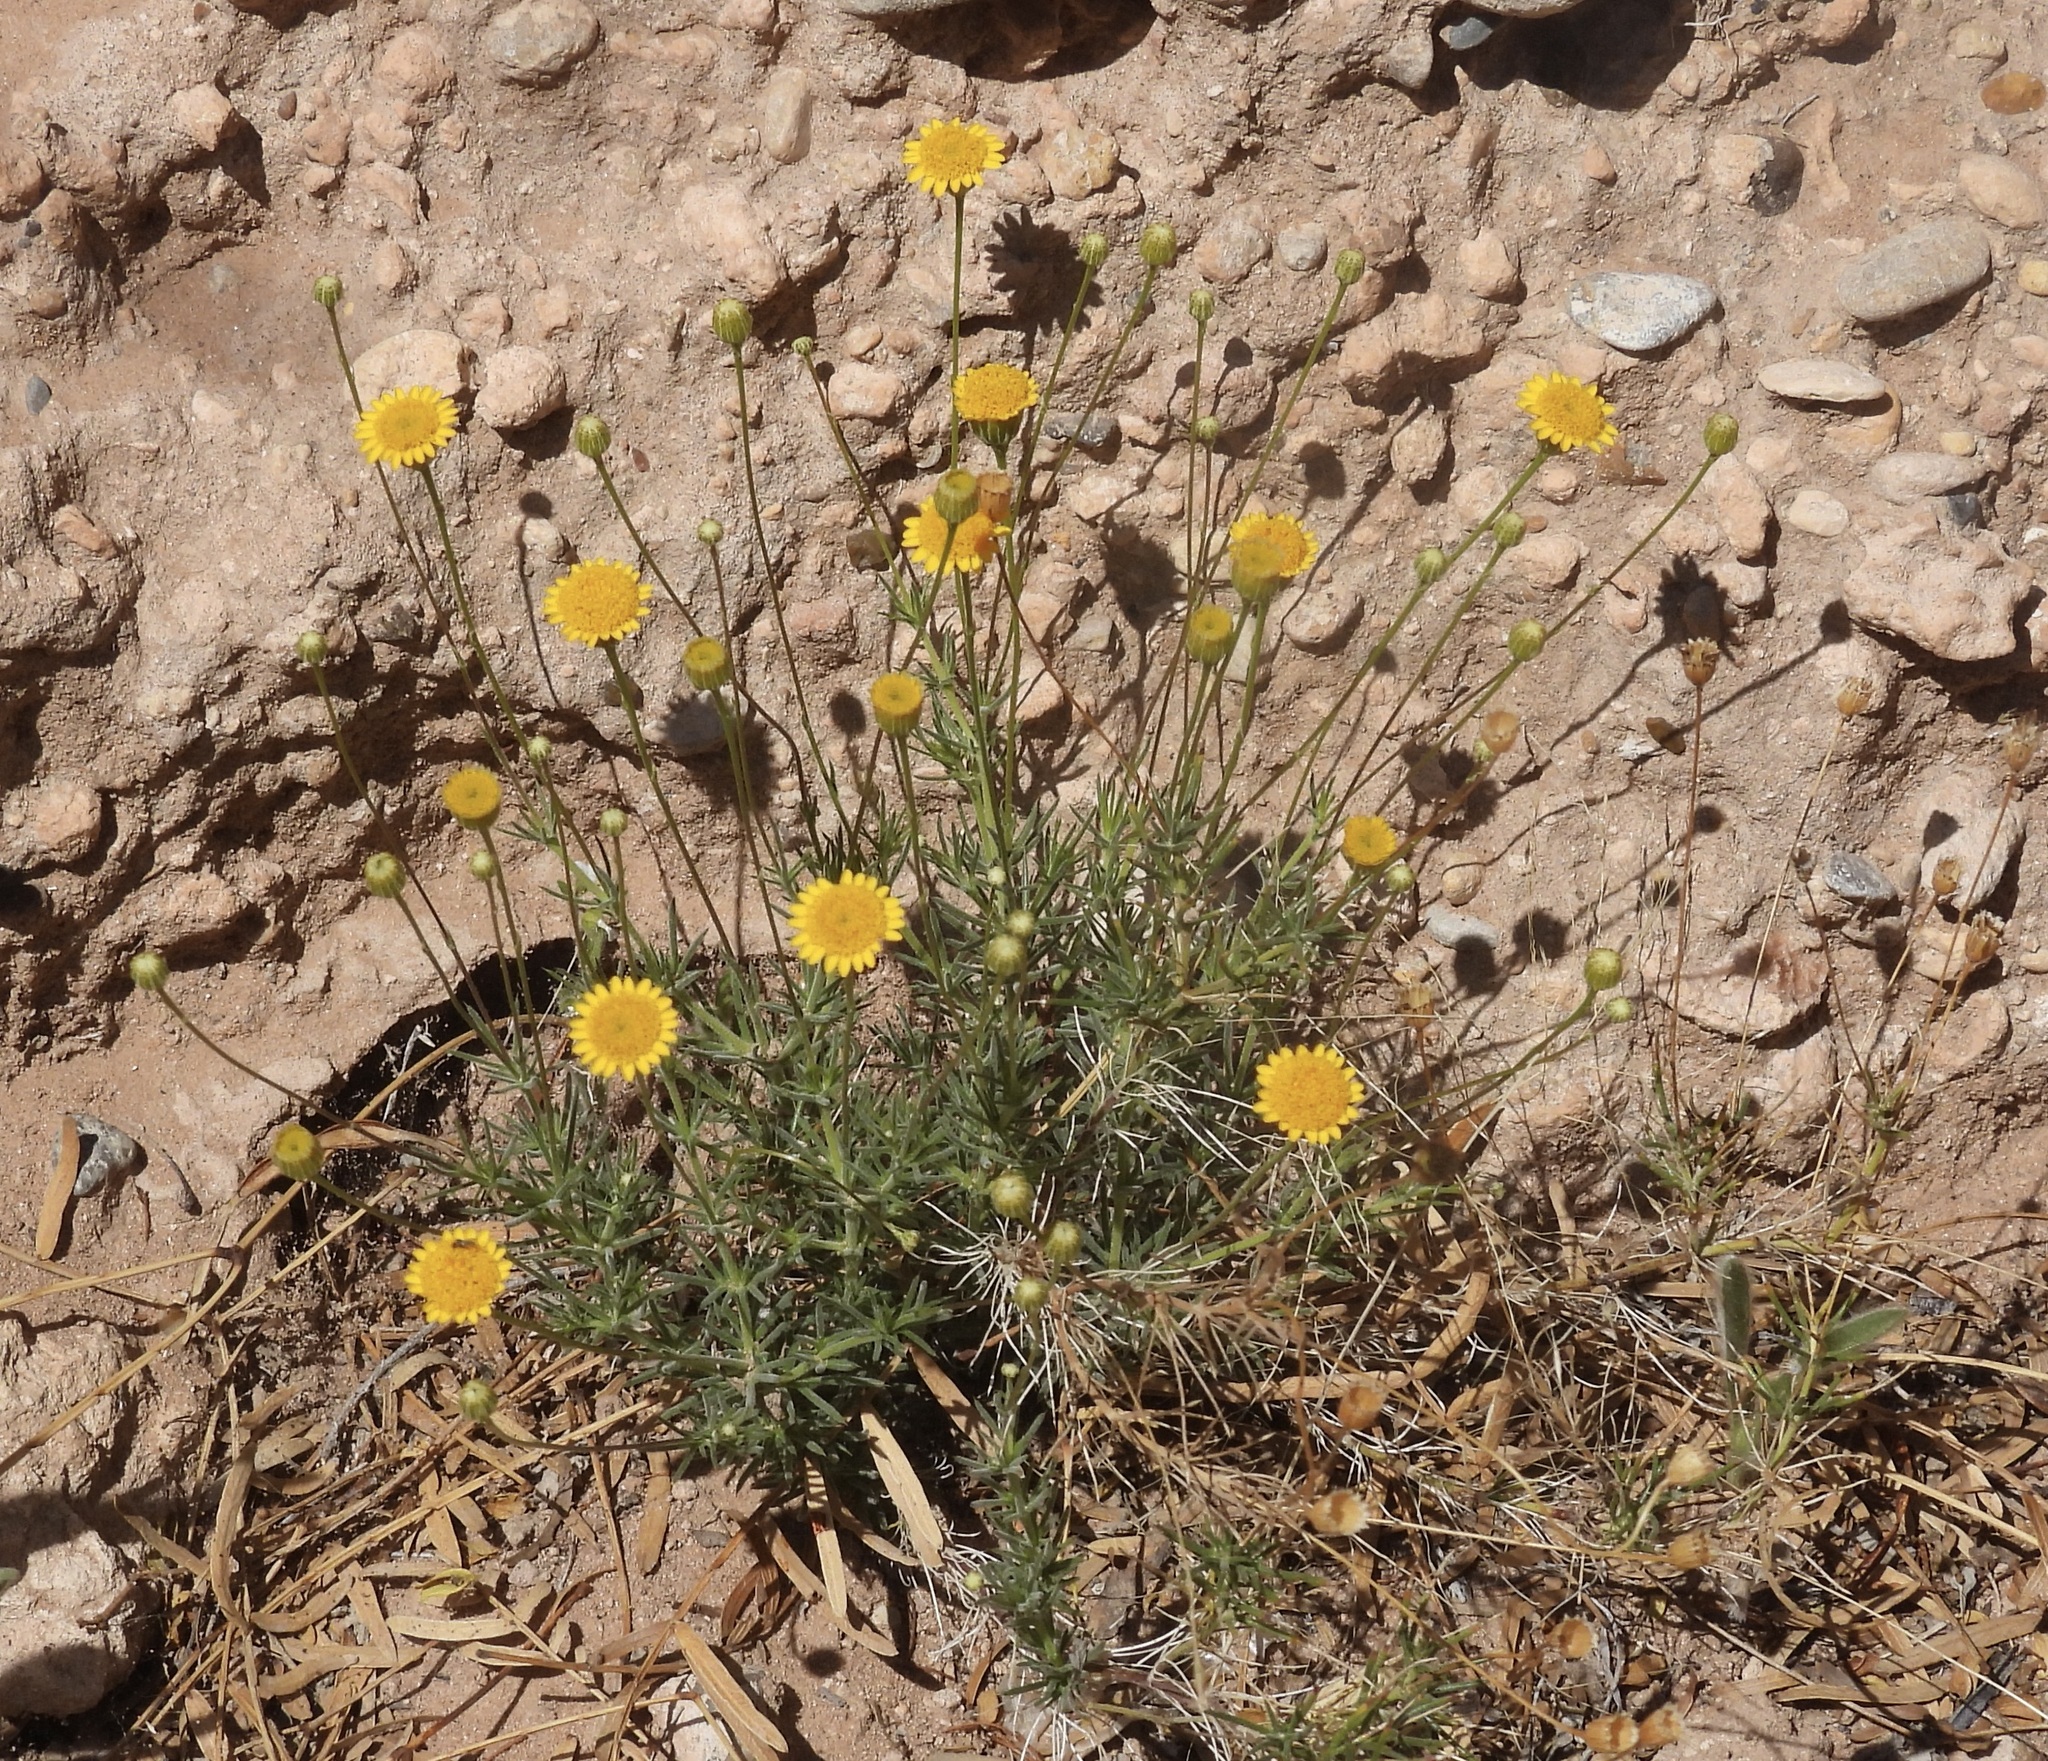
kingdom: Plantae
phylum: Tracheophyta
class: Magnoliopsida
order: Asterales
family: Asteraceae
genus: Thymophylla
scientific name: Thymophylla pentachaeta
